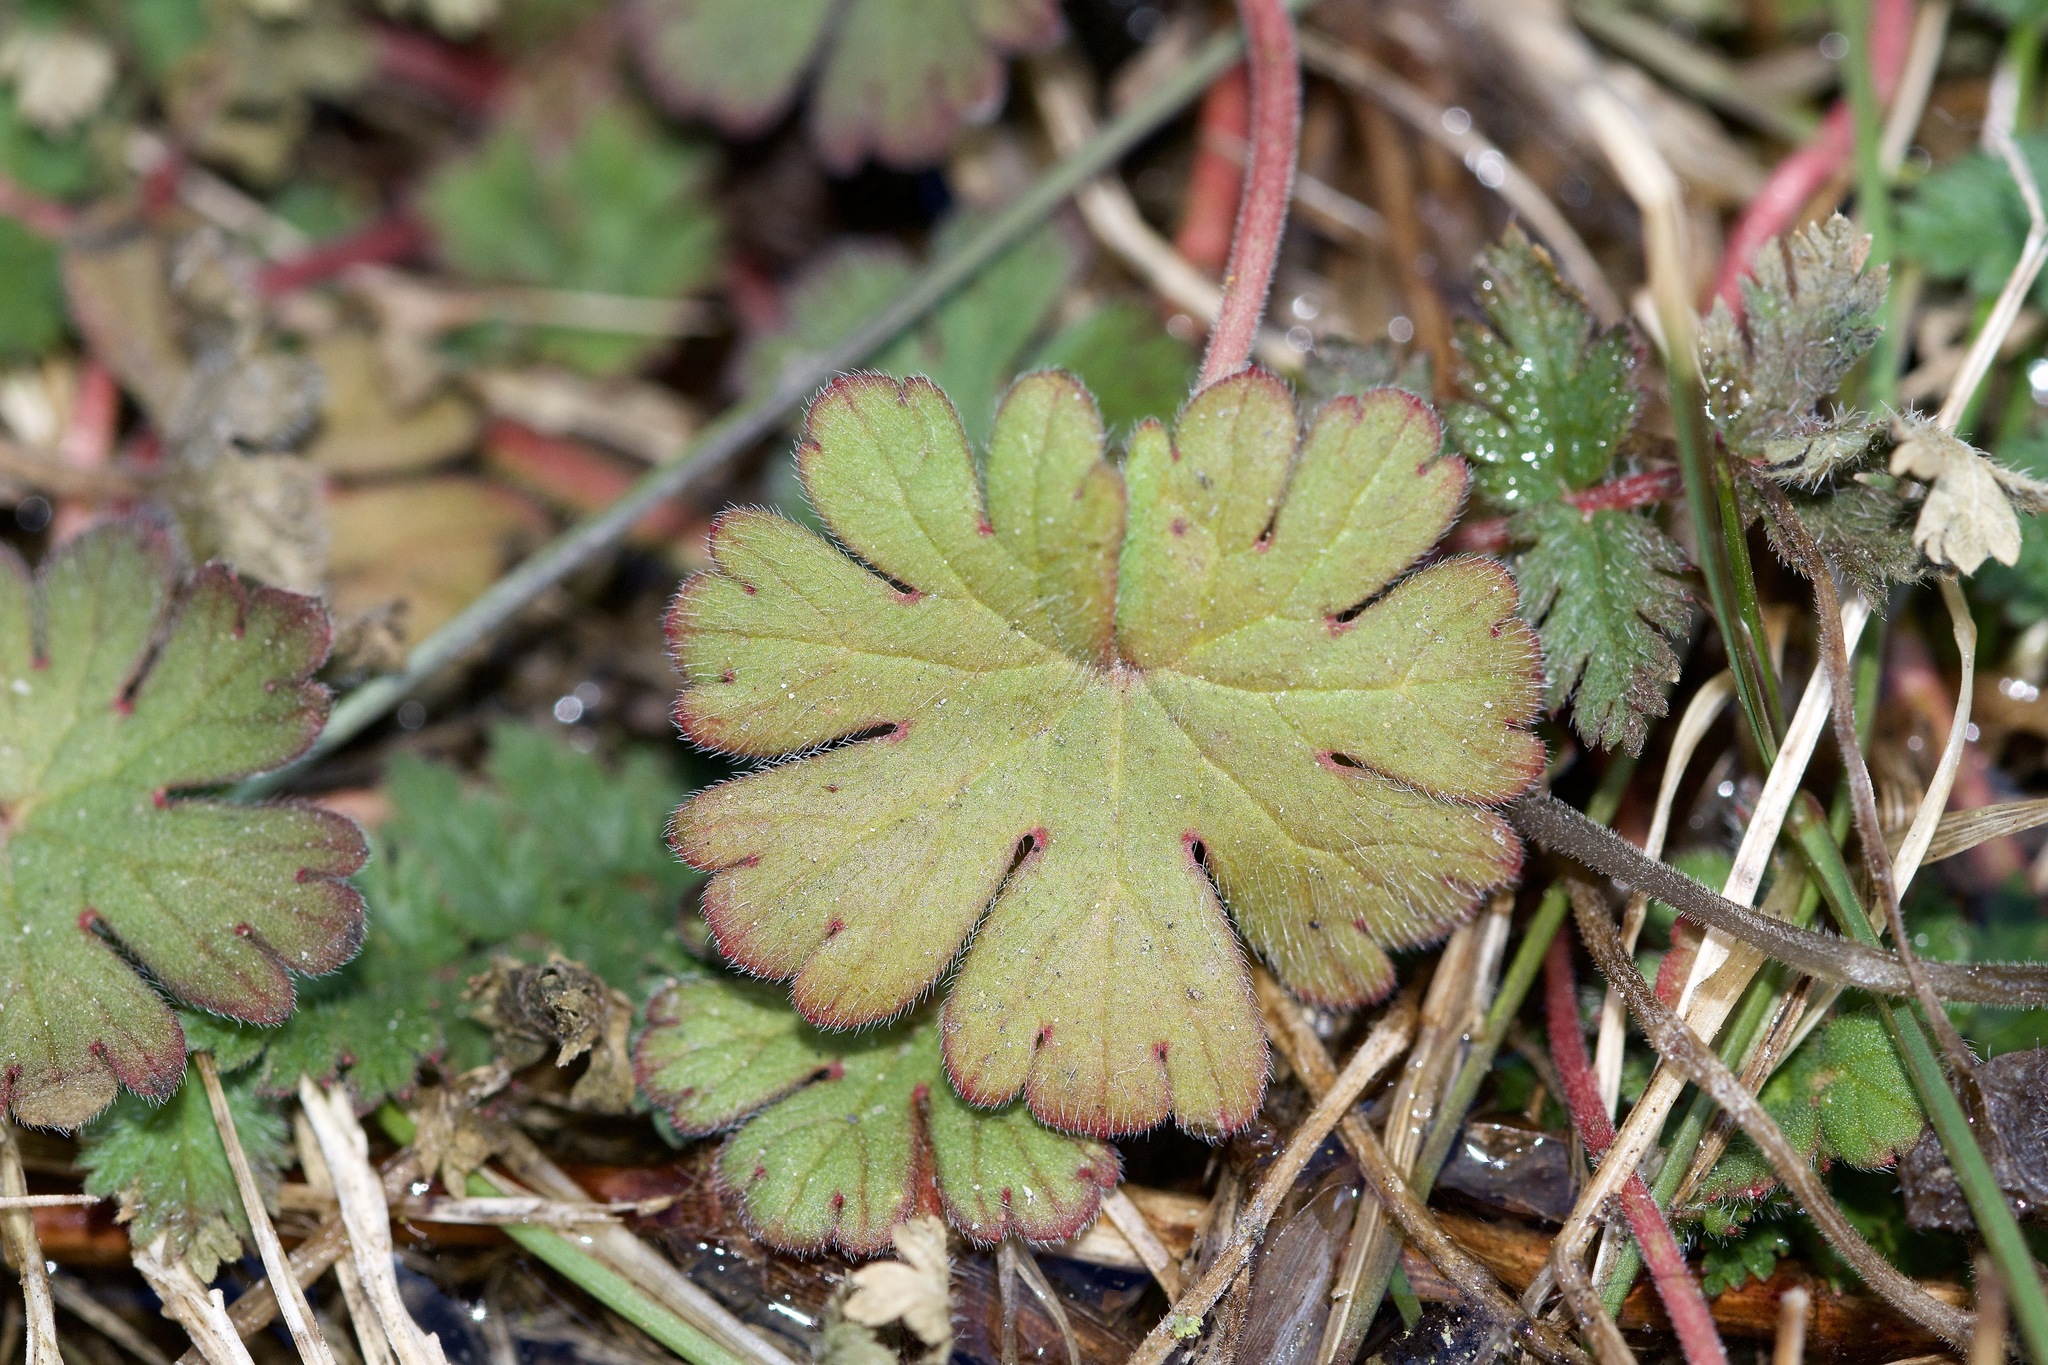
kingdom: Plantae
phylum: Tracheophyta
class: Magnoliopsida
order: Geraniales
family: Geraniaceae
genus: Geranium
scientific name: Geranium molle
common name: Dove's-foot crane's-bill
